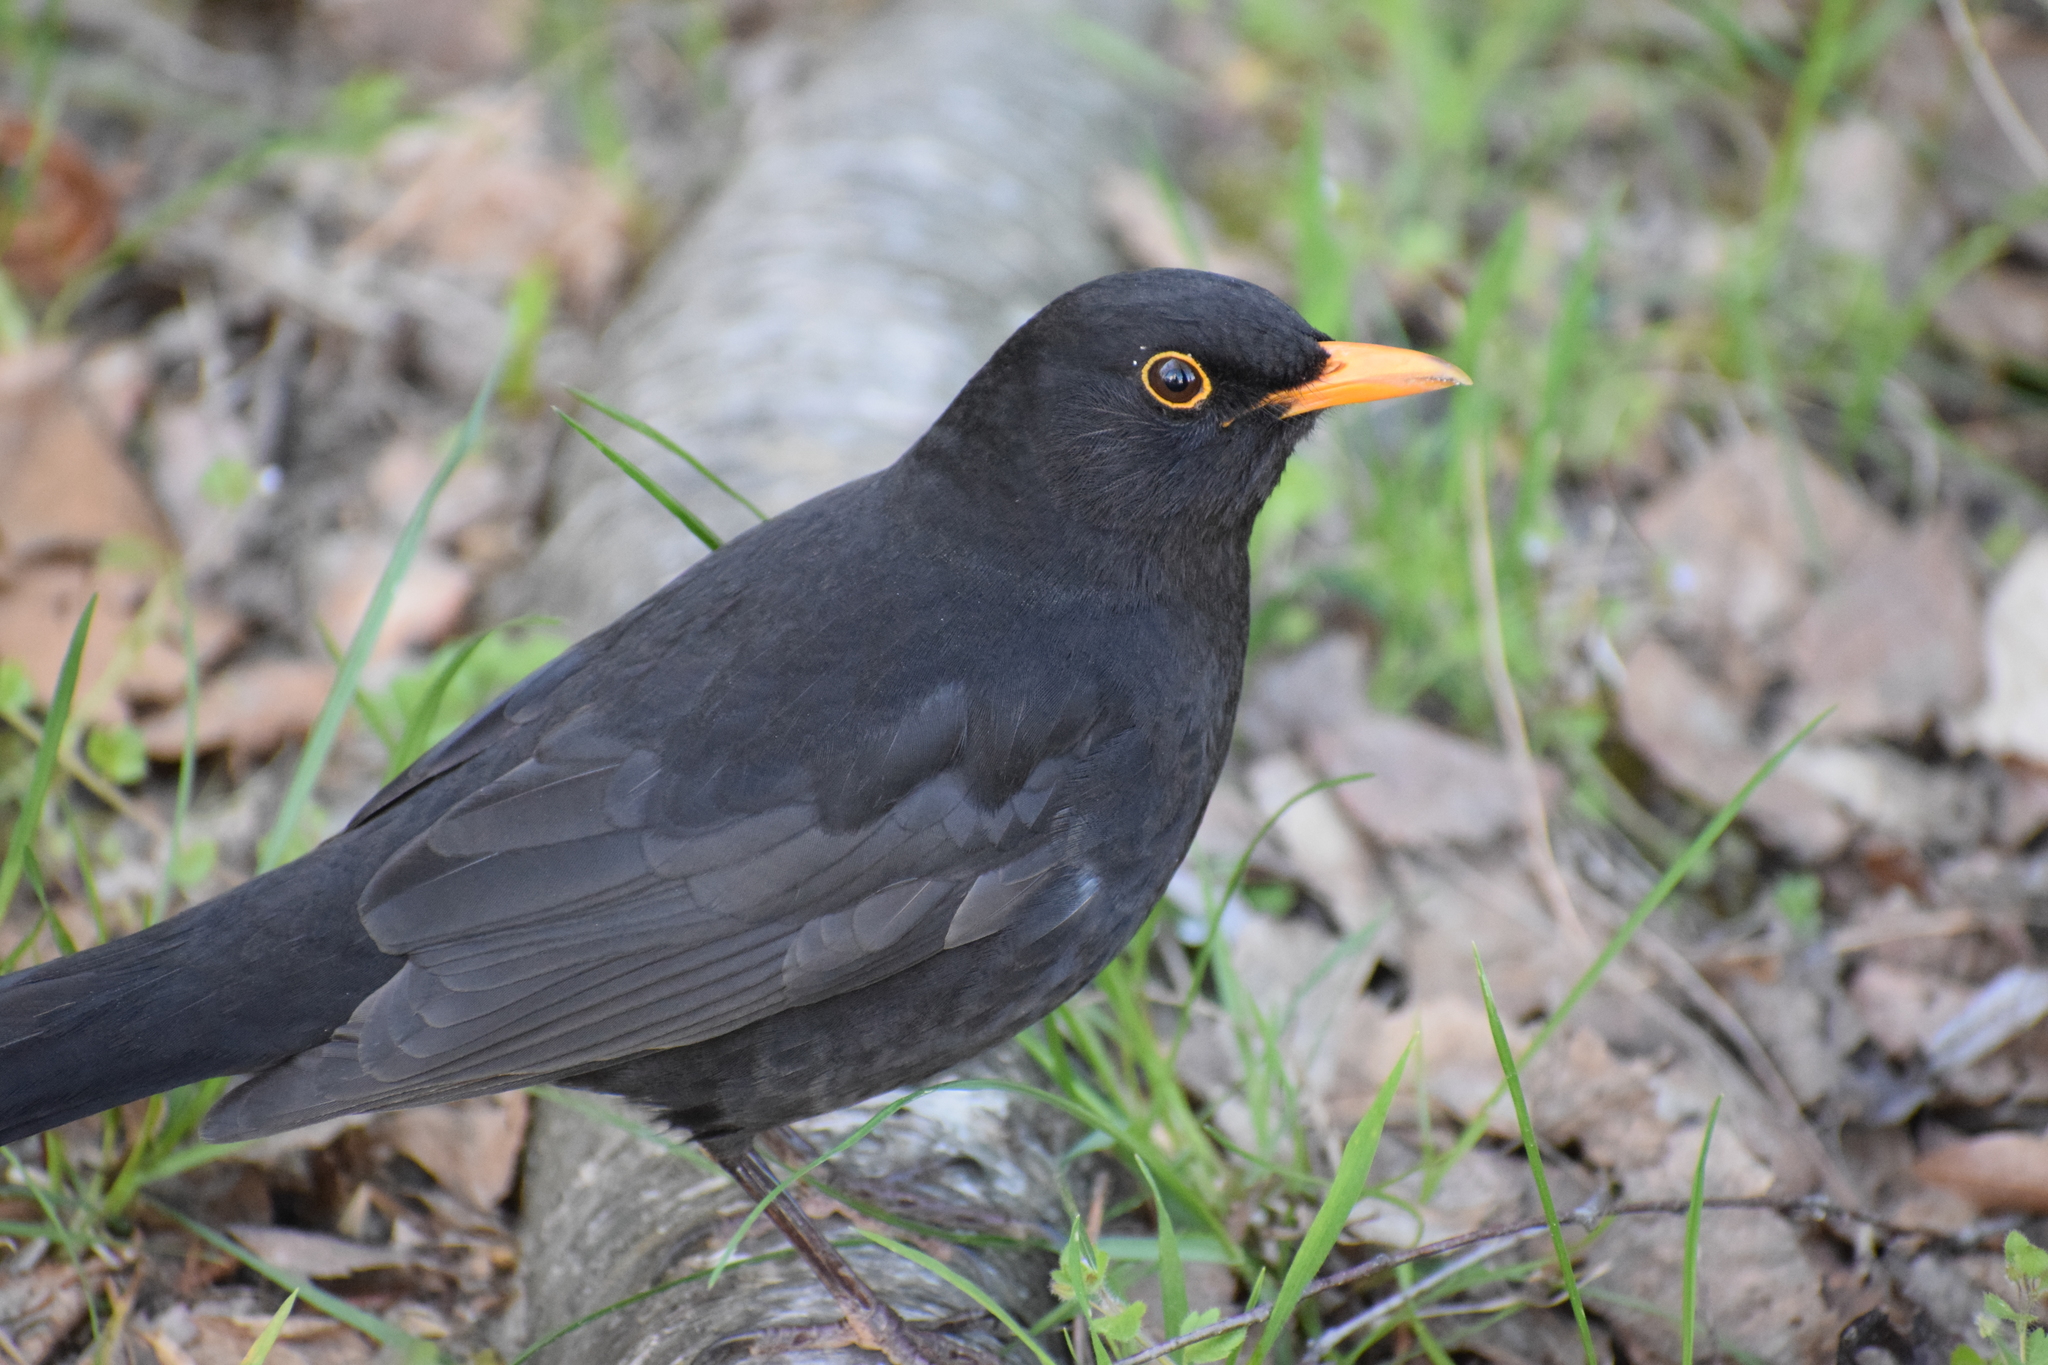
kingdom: Animalia
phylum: Chordata
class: Aves
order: Passeriformes
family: Turdidae
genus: Turdus
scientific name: Turdus merula
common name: Common blackbird
